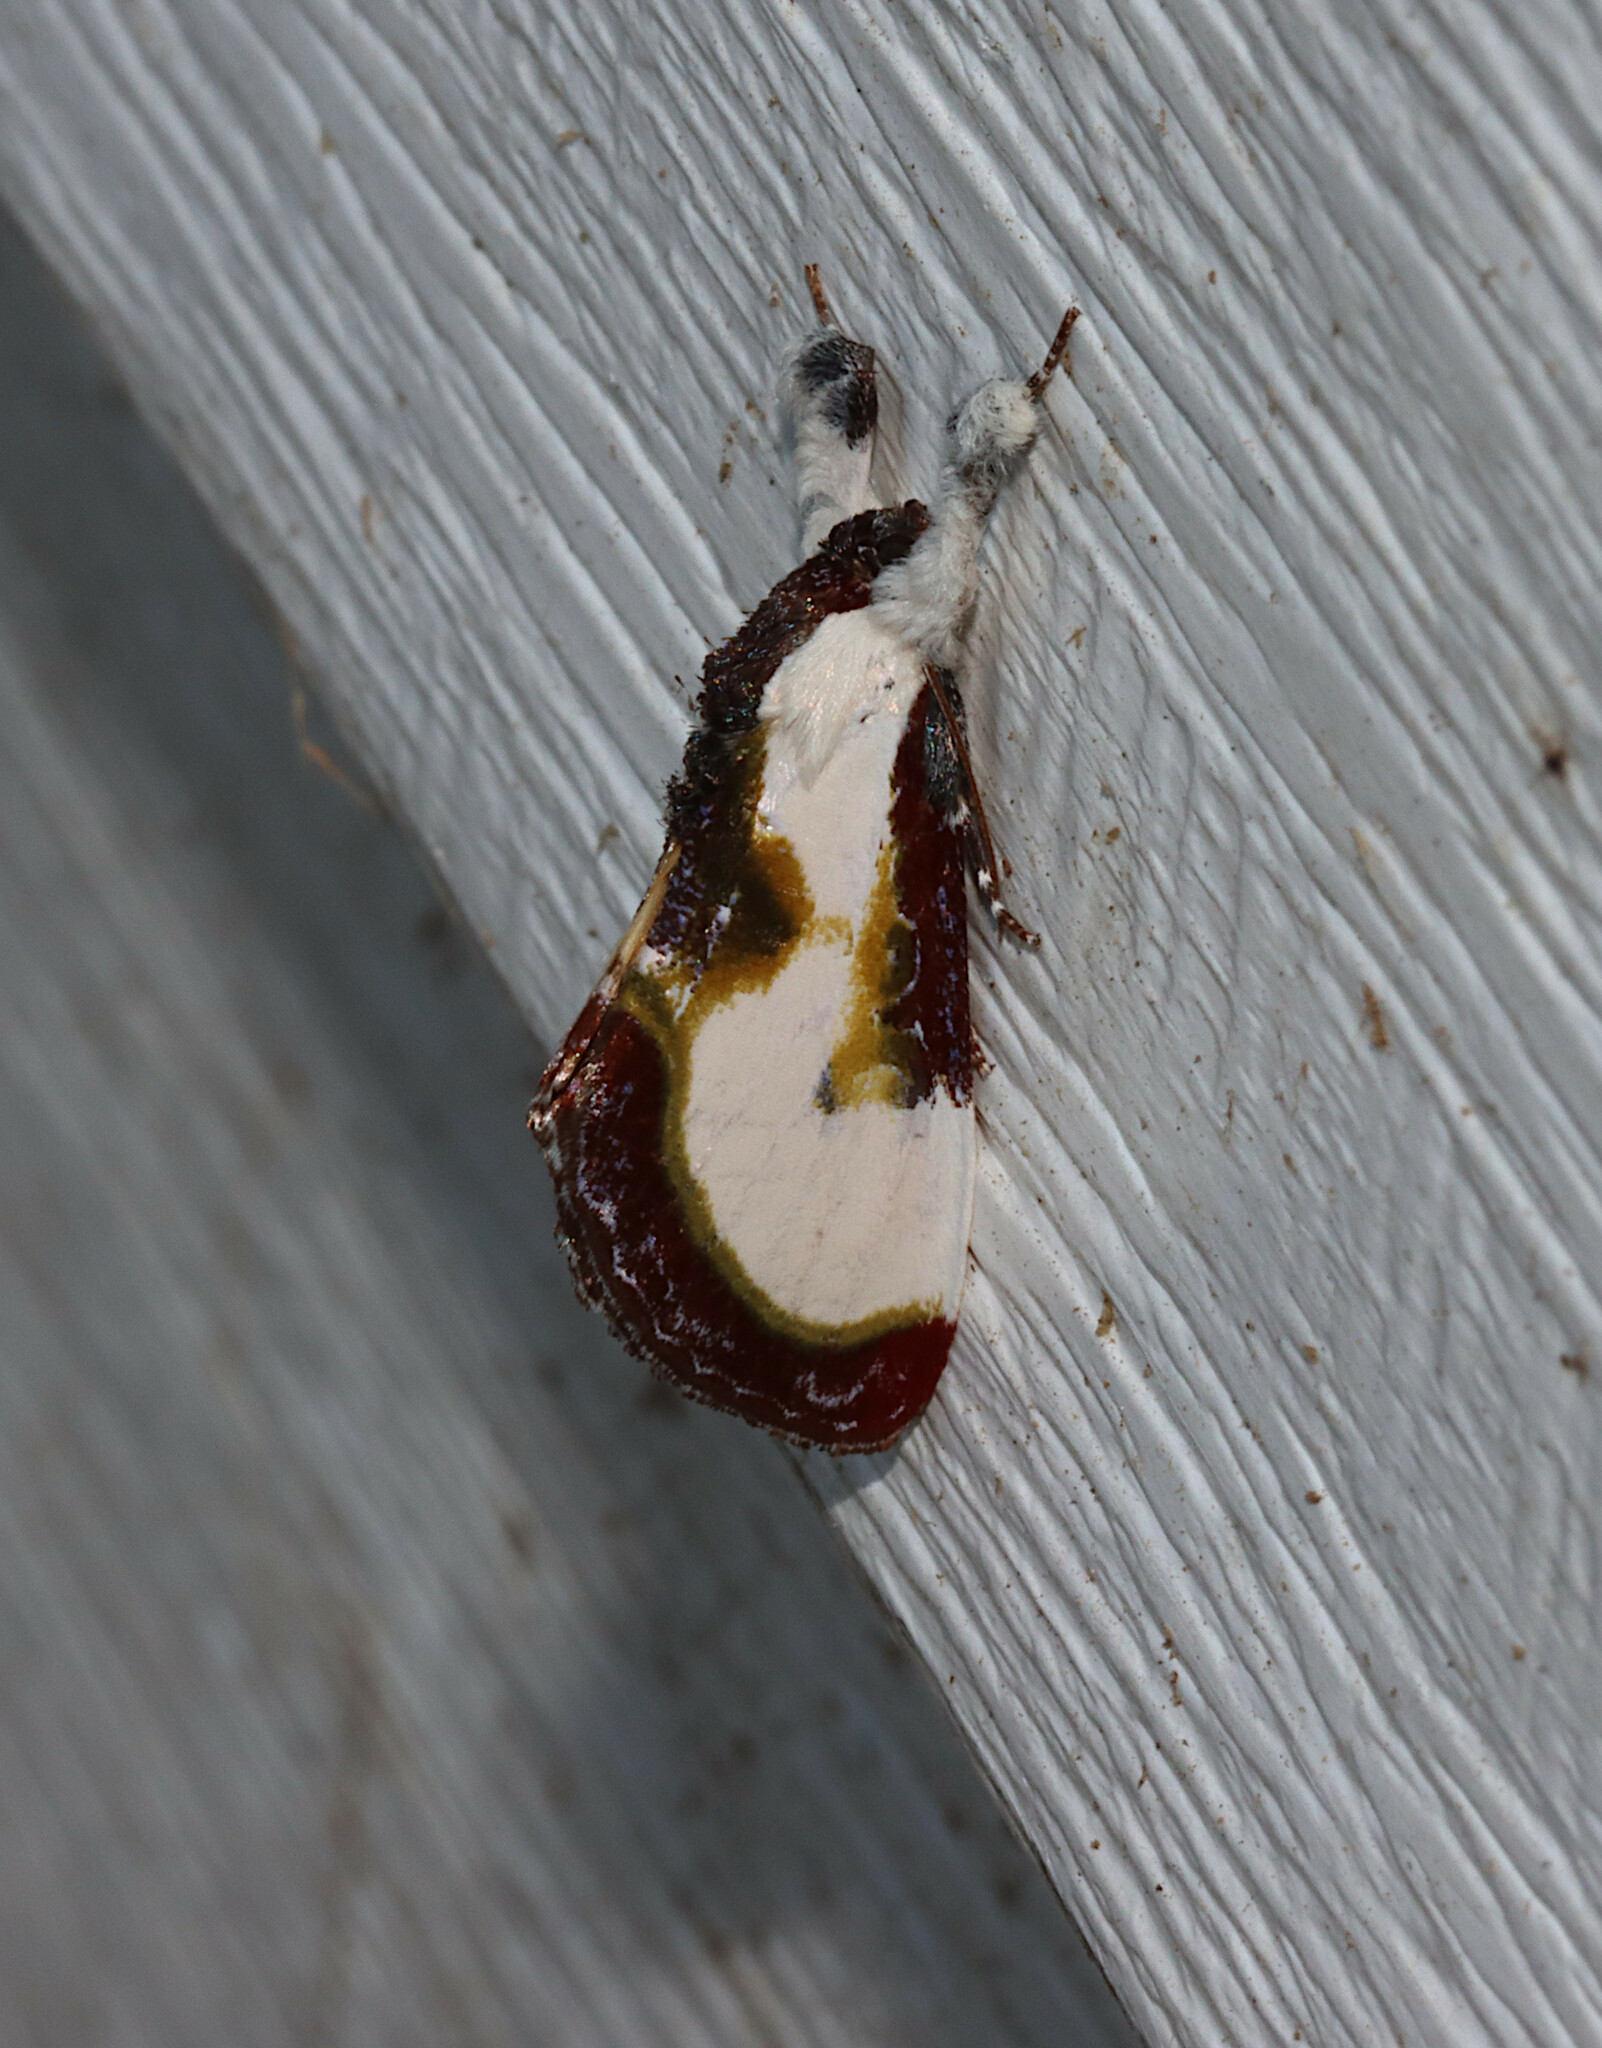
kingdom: Animalia
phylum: Arthropoda
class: Insecta
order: Lepidoptera
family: Noctuidae
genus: Eudryas
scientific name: Eudryas grata
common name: Beautiful wood-nymph
